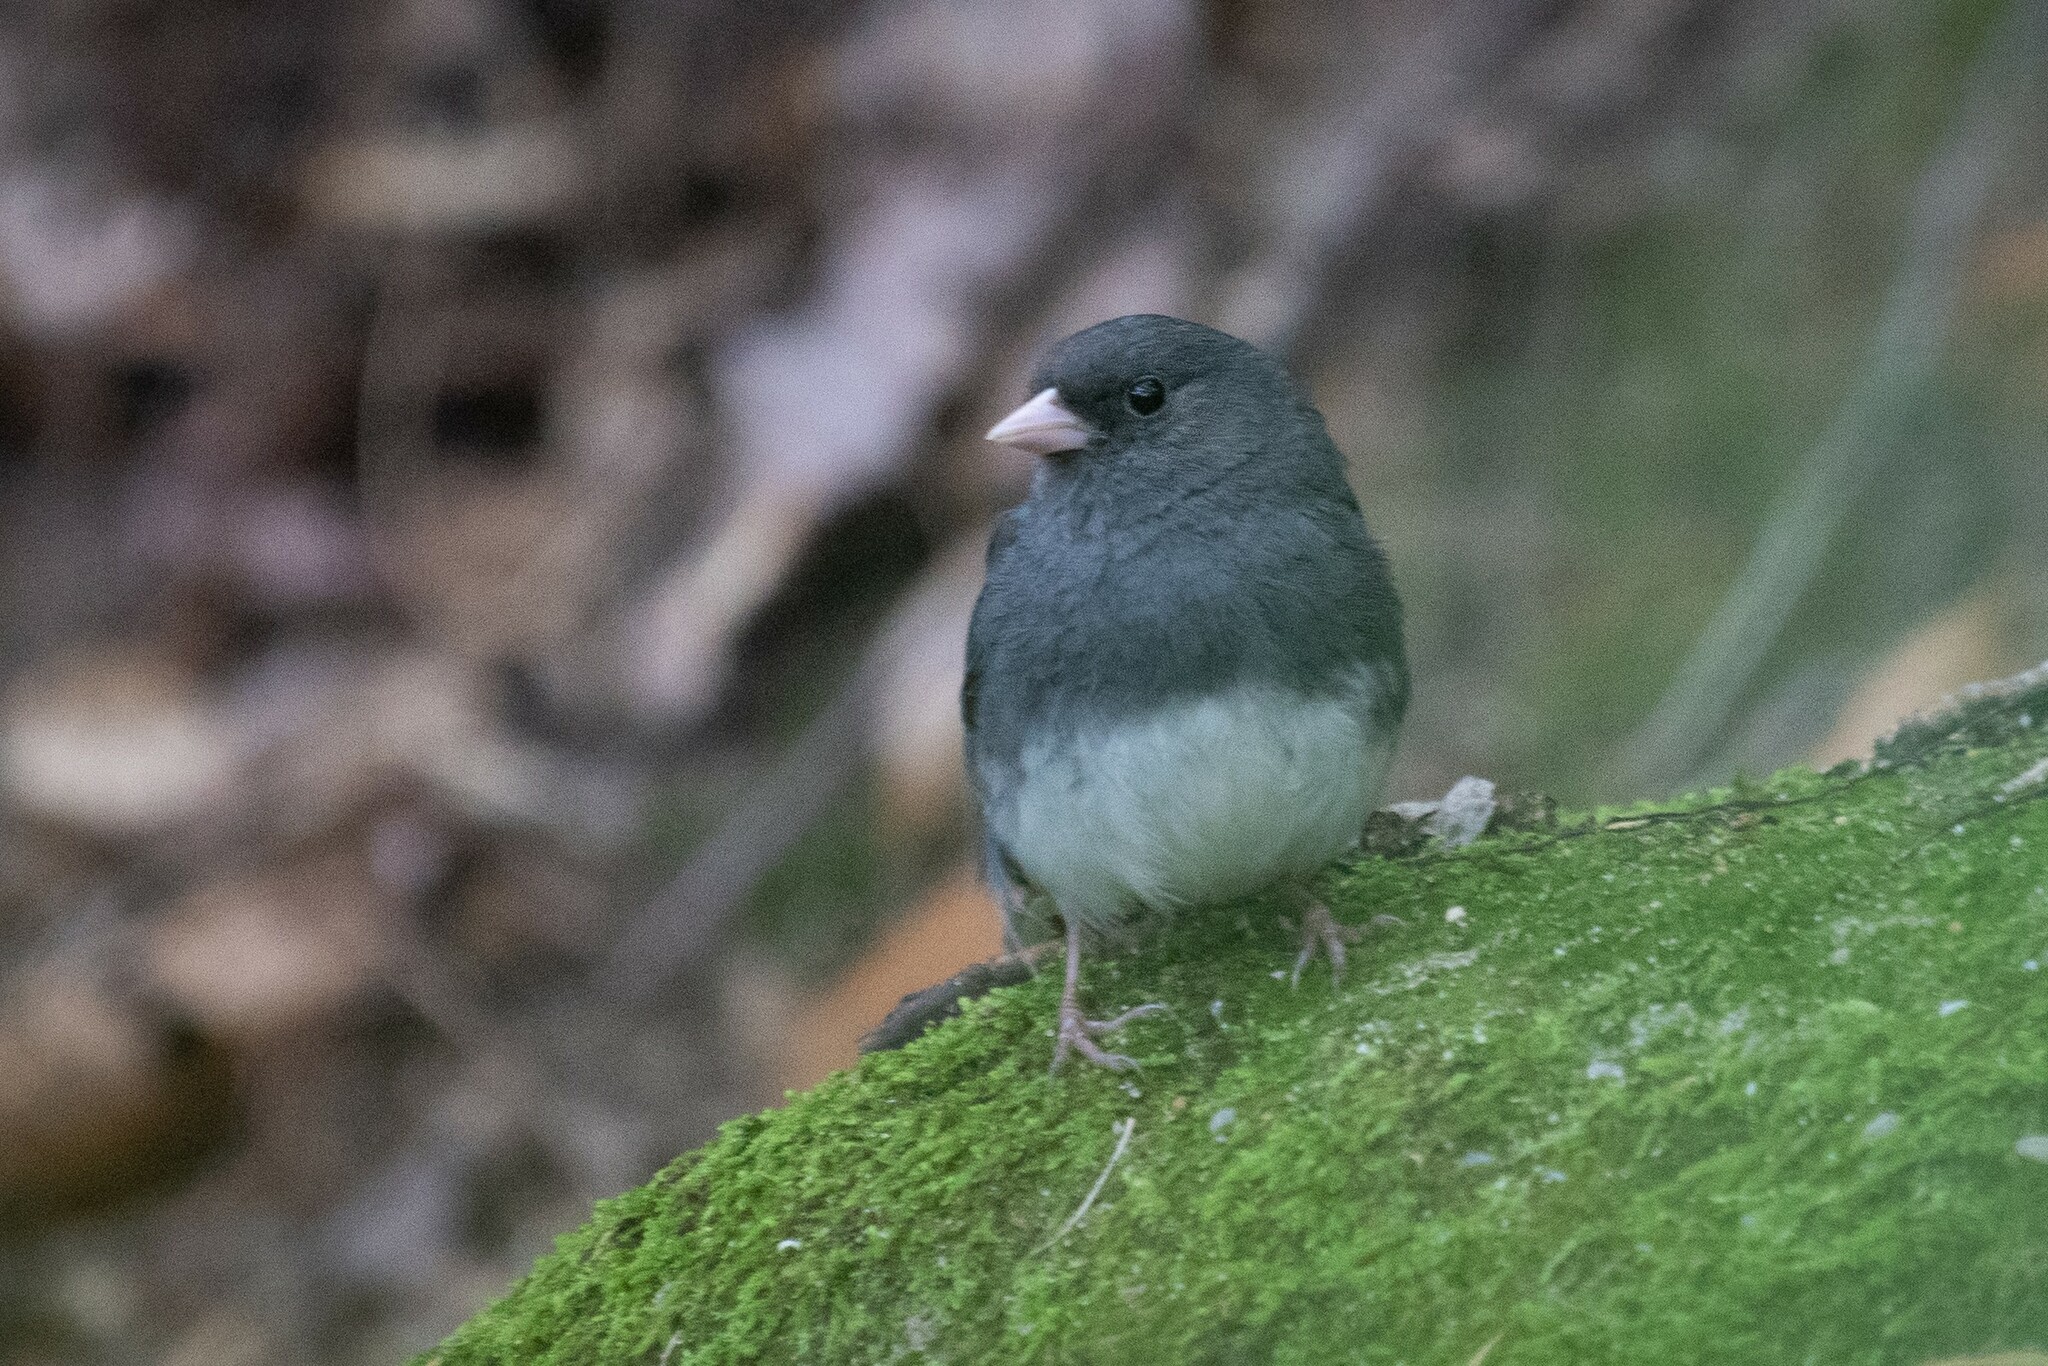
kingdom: Animalia
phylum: Chordata
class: Aves
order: Passeriformes
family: Passerellidae
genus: Junco
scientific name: Junco hyemalis
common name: Dark-eyed junco
